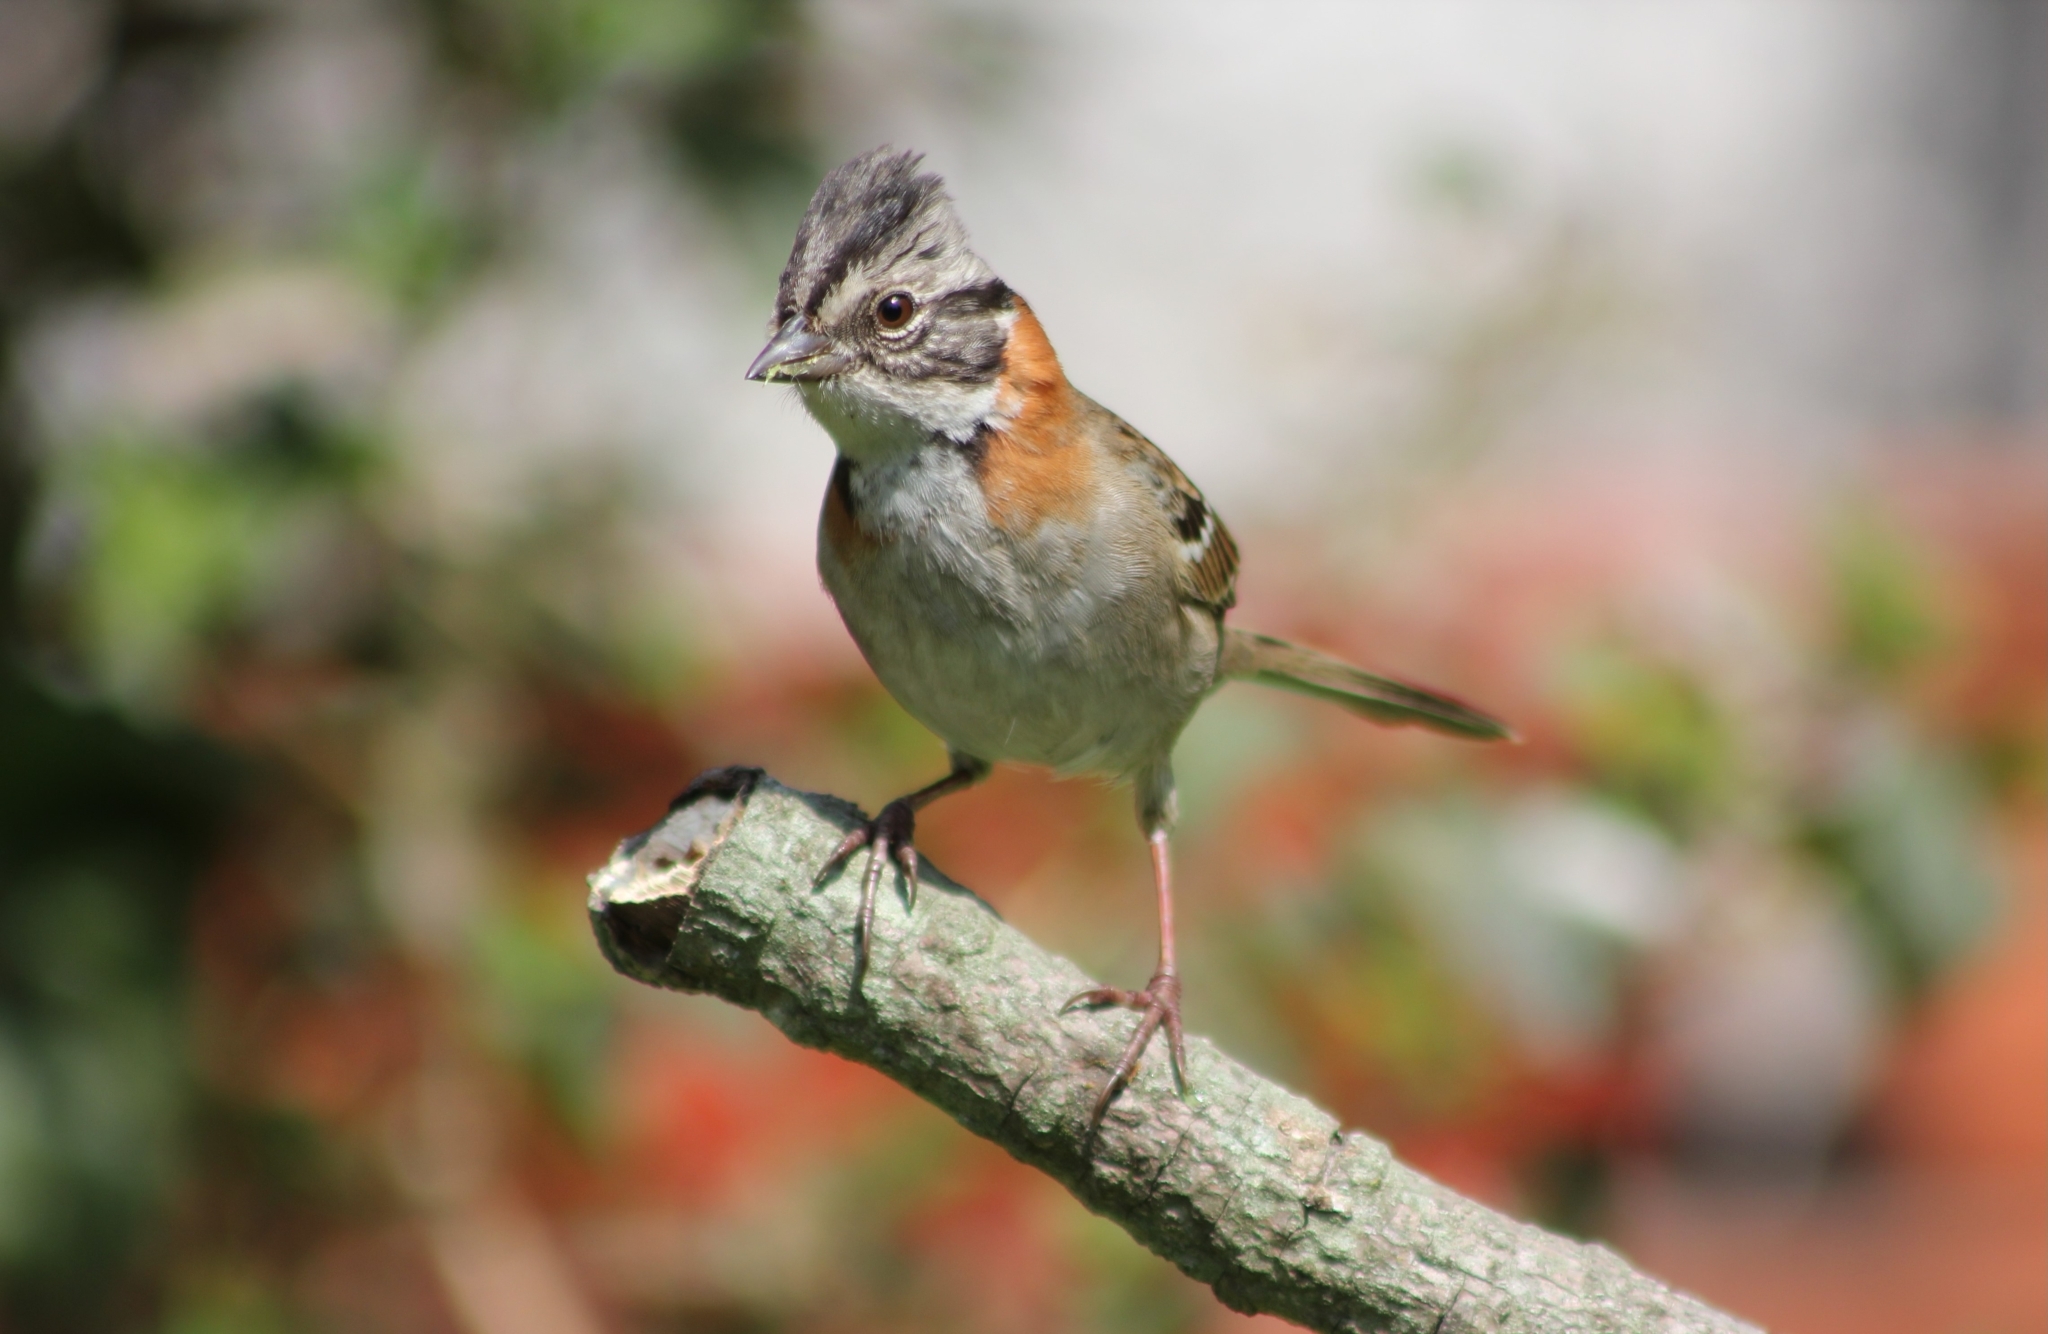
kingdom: Animalia
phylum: Chordata
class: Aves
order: Passeriformes
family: Passerellidae
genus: Zonotrichia
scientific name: Zonotrichia capensis
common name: Rufous-collared sparrow
